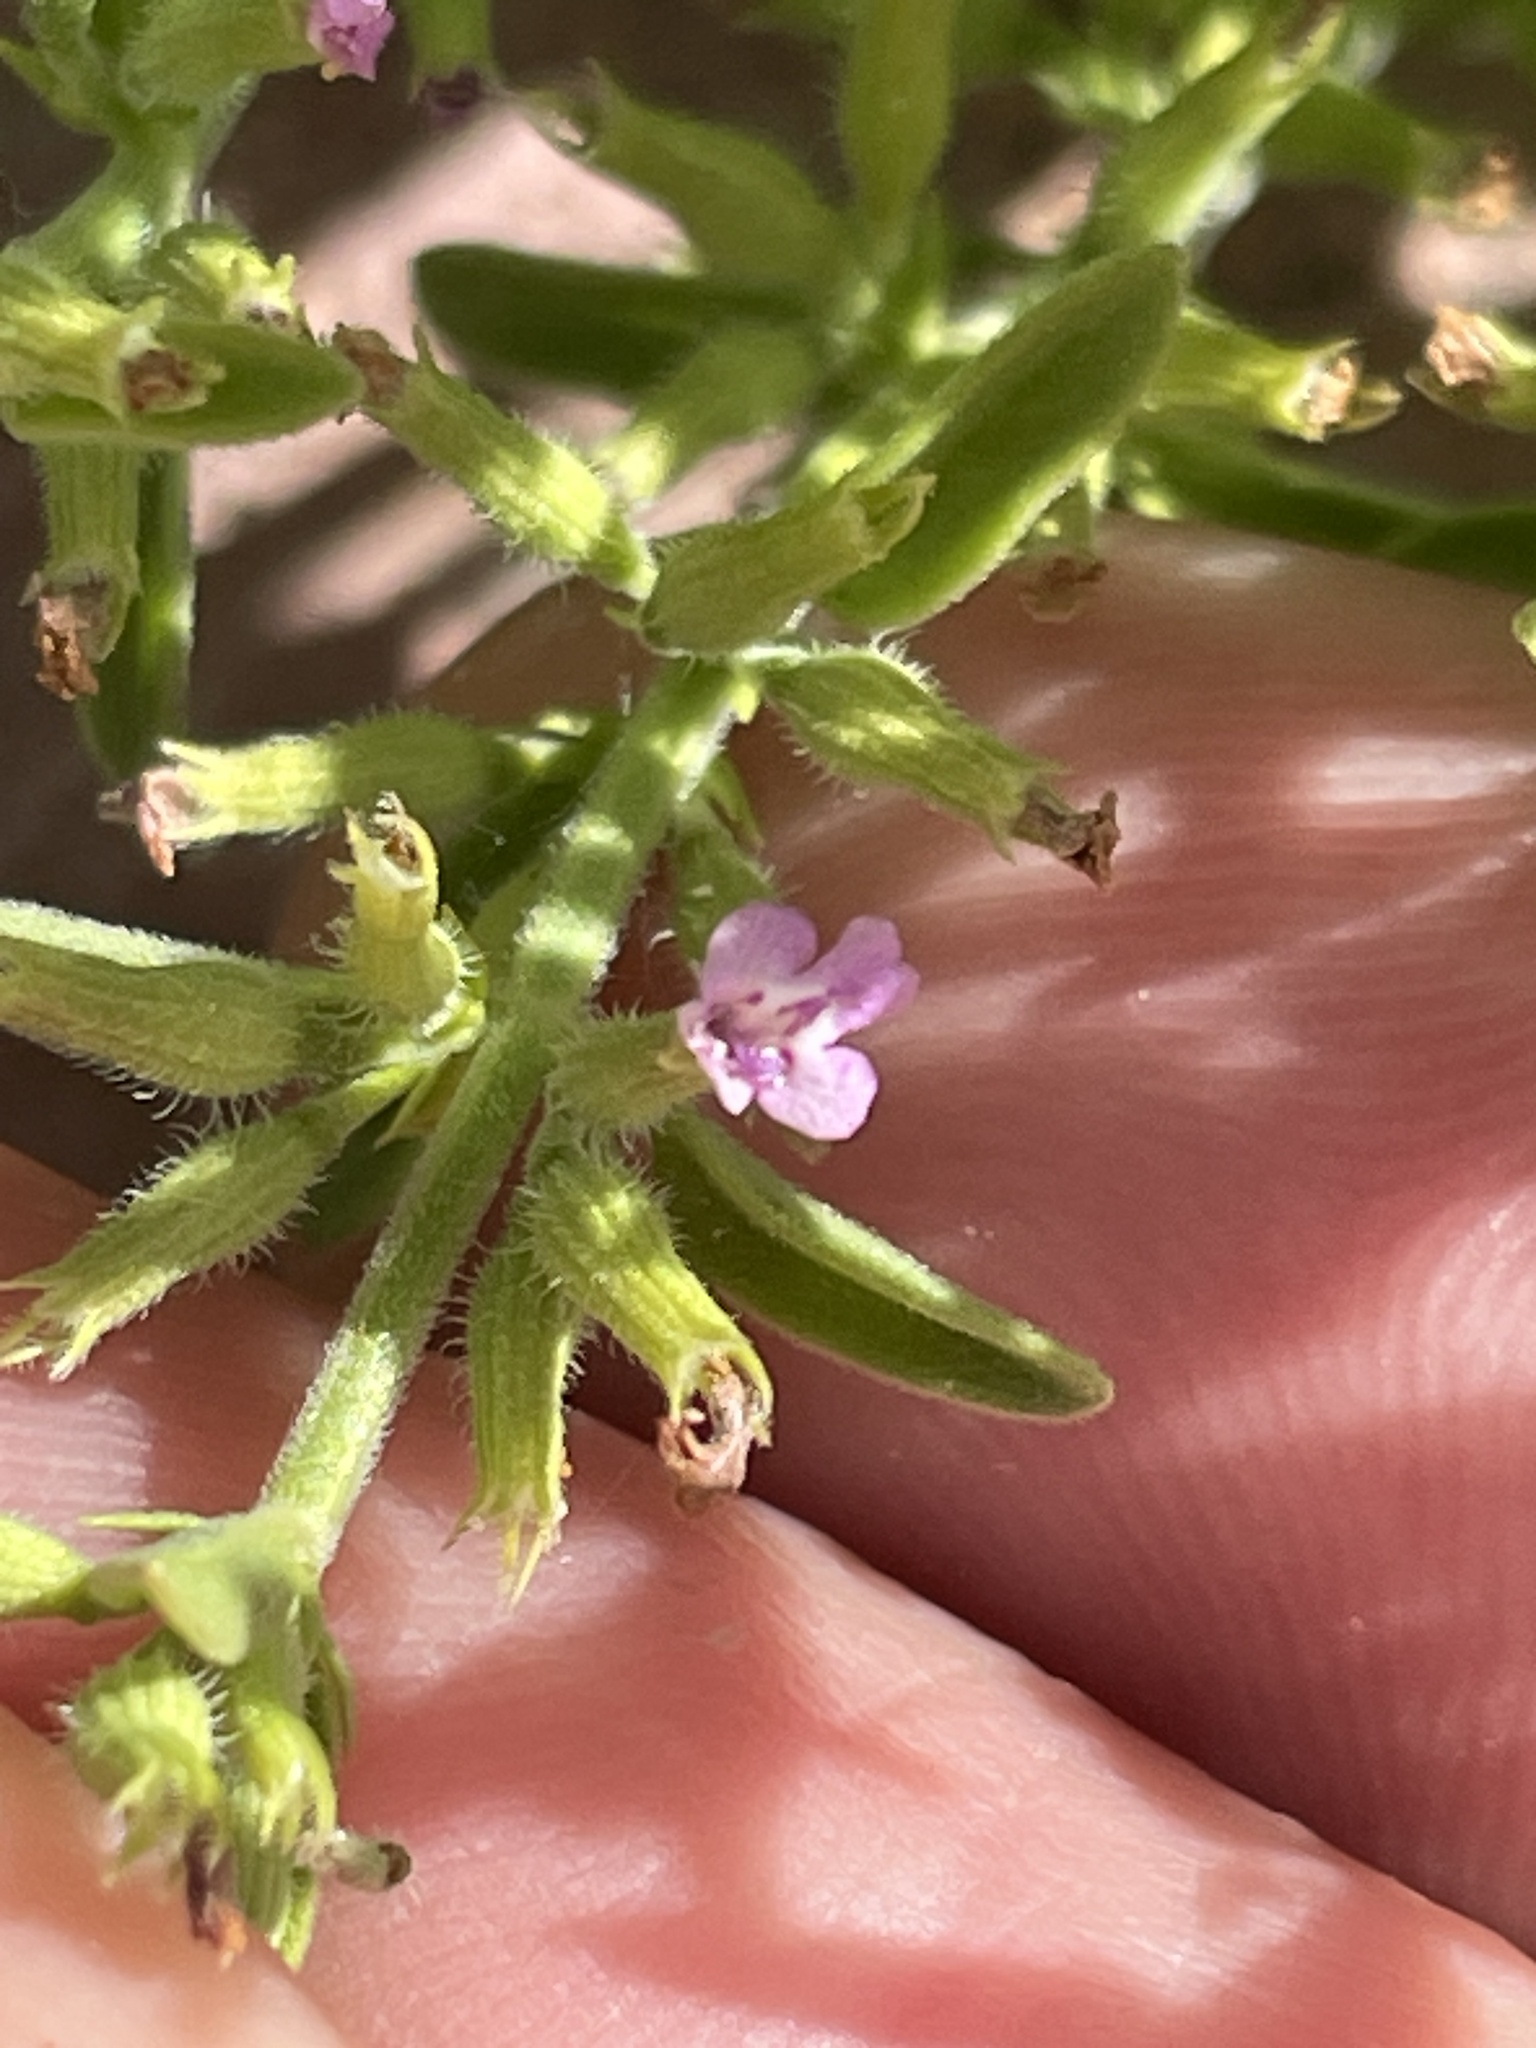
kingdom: Plantae
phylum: Tracheophyta
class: Magnoliopsida
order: Lamiales
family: Lamiaceae
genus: Hedeoma
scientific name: Hedeoma drummondii
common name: New mexico pennyroyal
